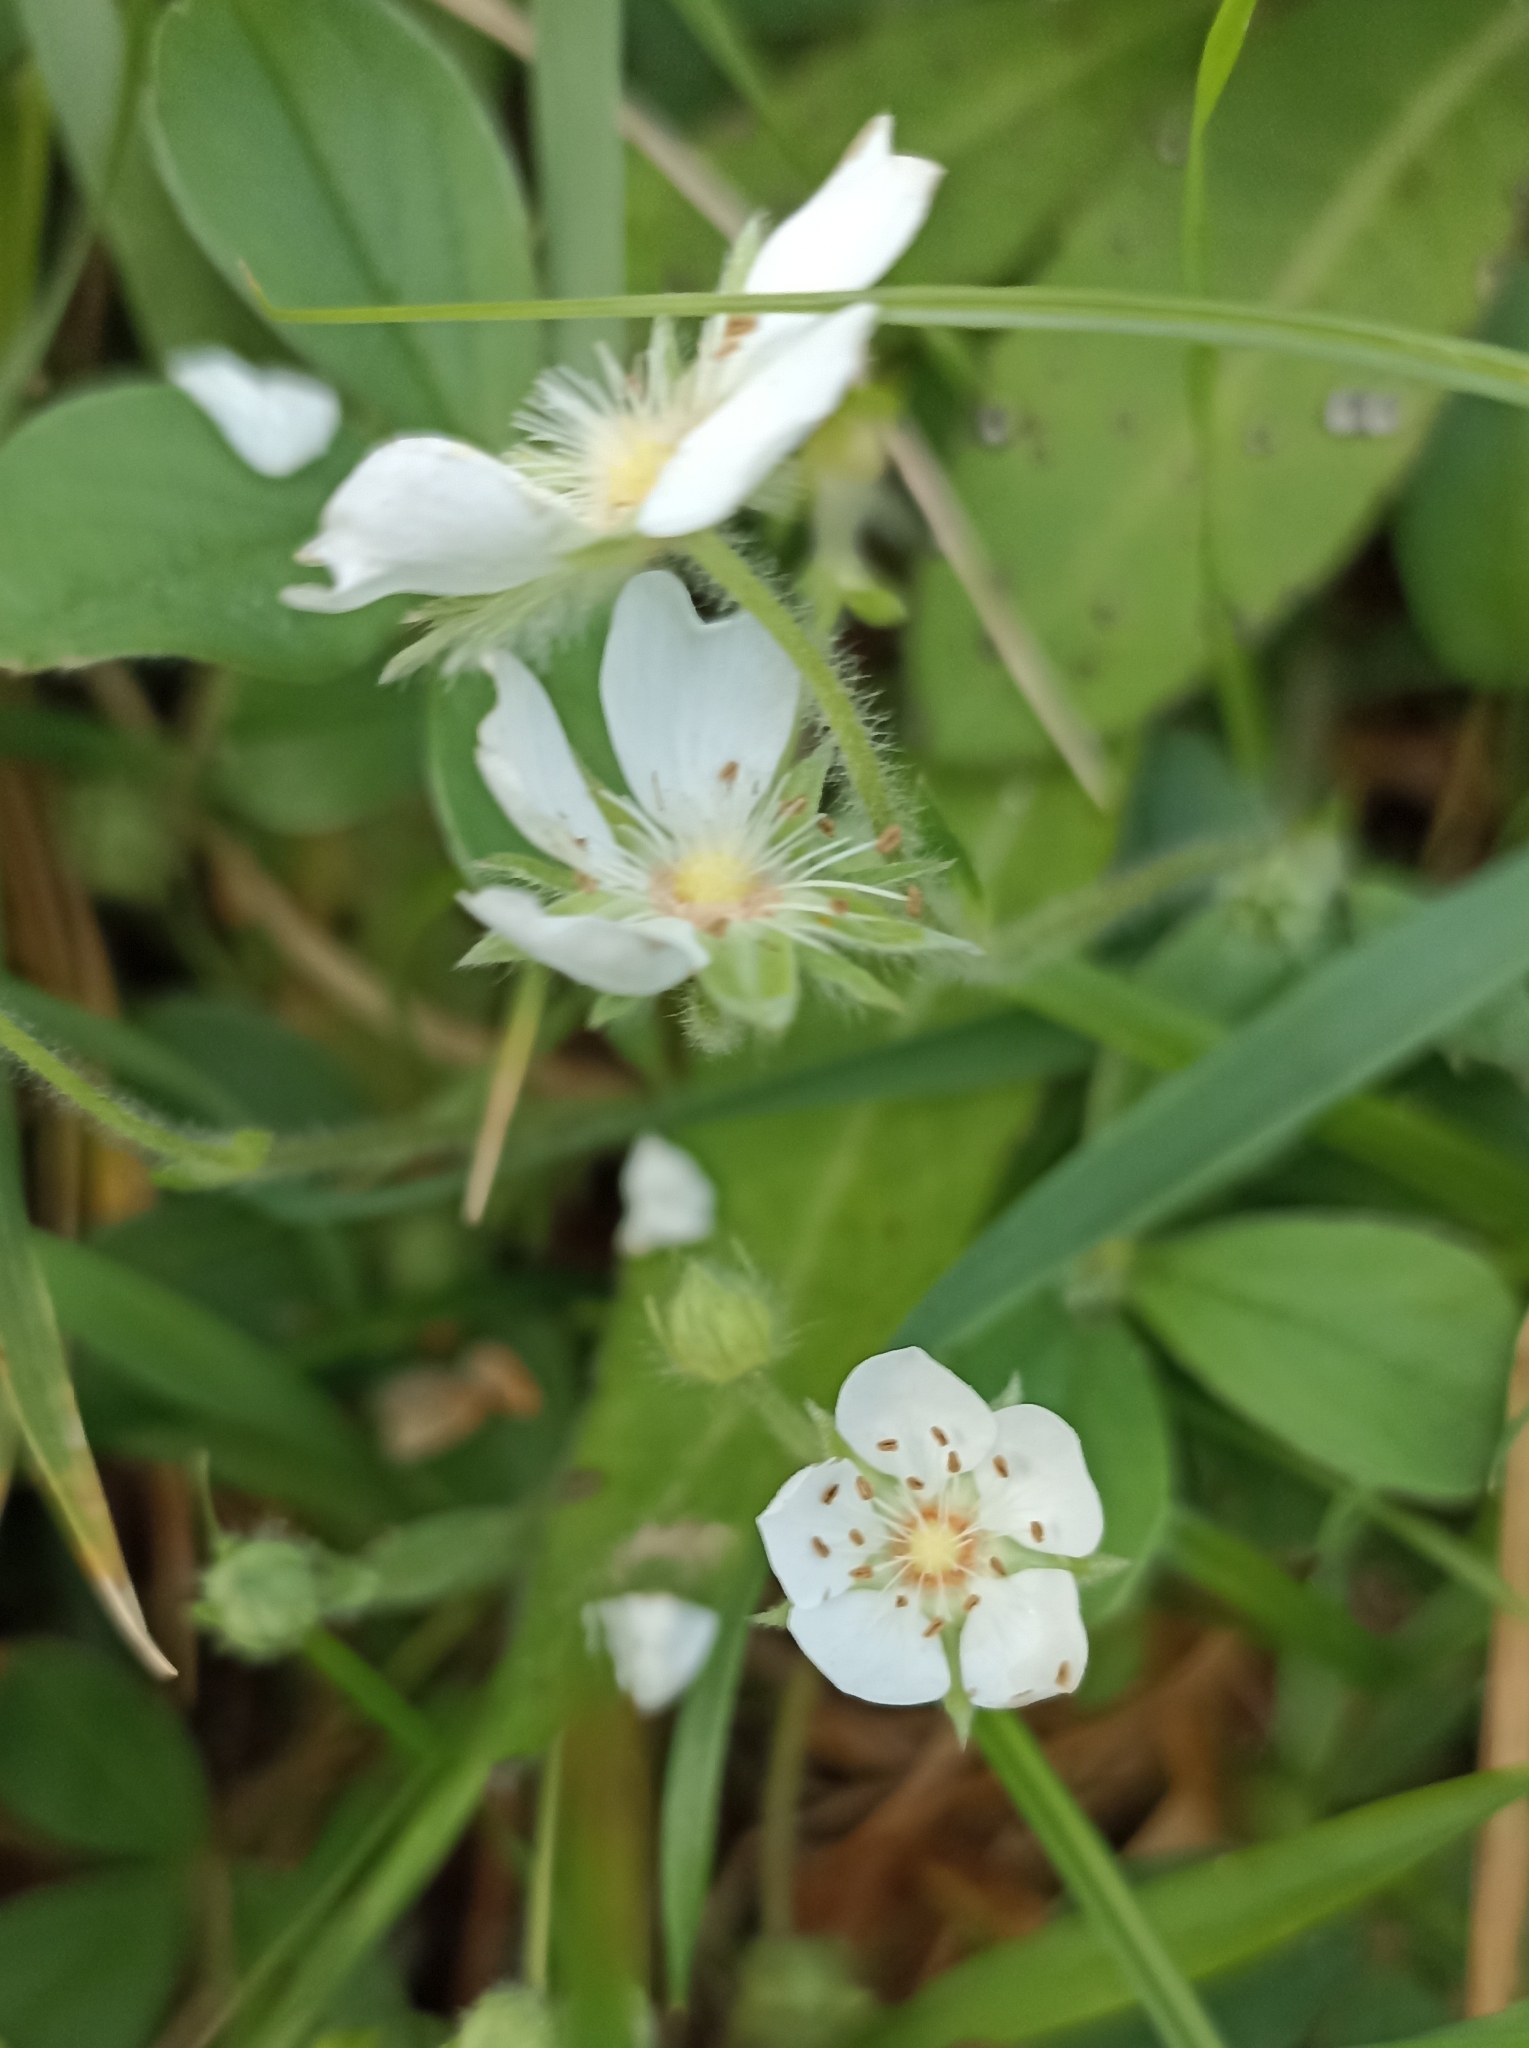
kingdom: Plantae
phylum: Tracheophyta
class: Magnoliopsida
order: Rosales
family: Rosaceae
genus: Potentilla
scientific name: Potentilla montana
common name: Mountain cinquefoil
